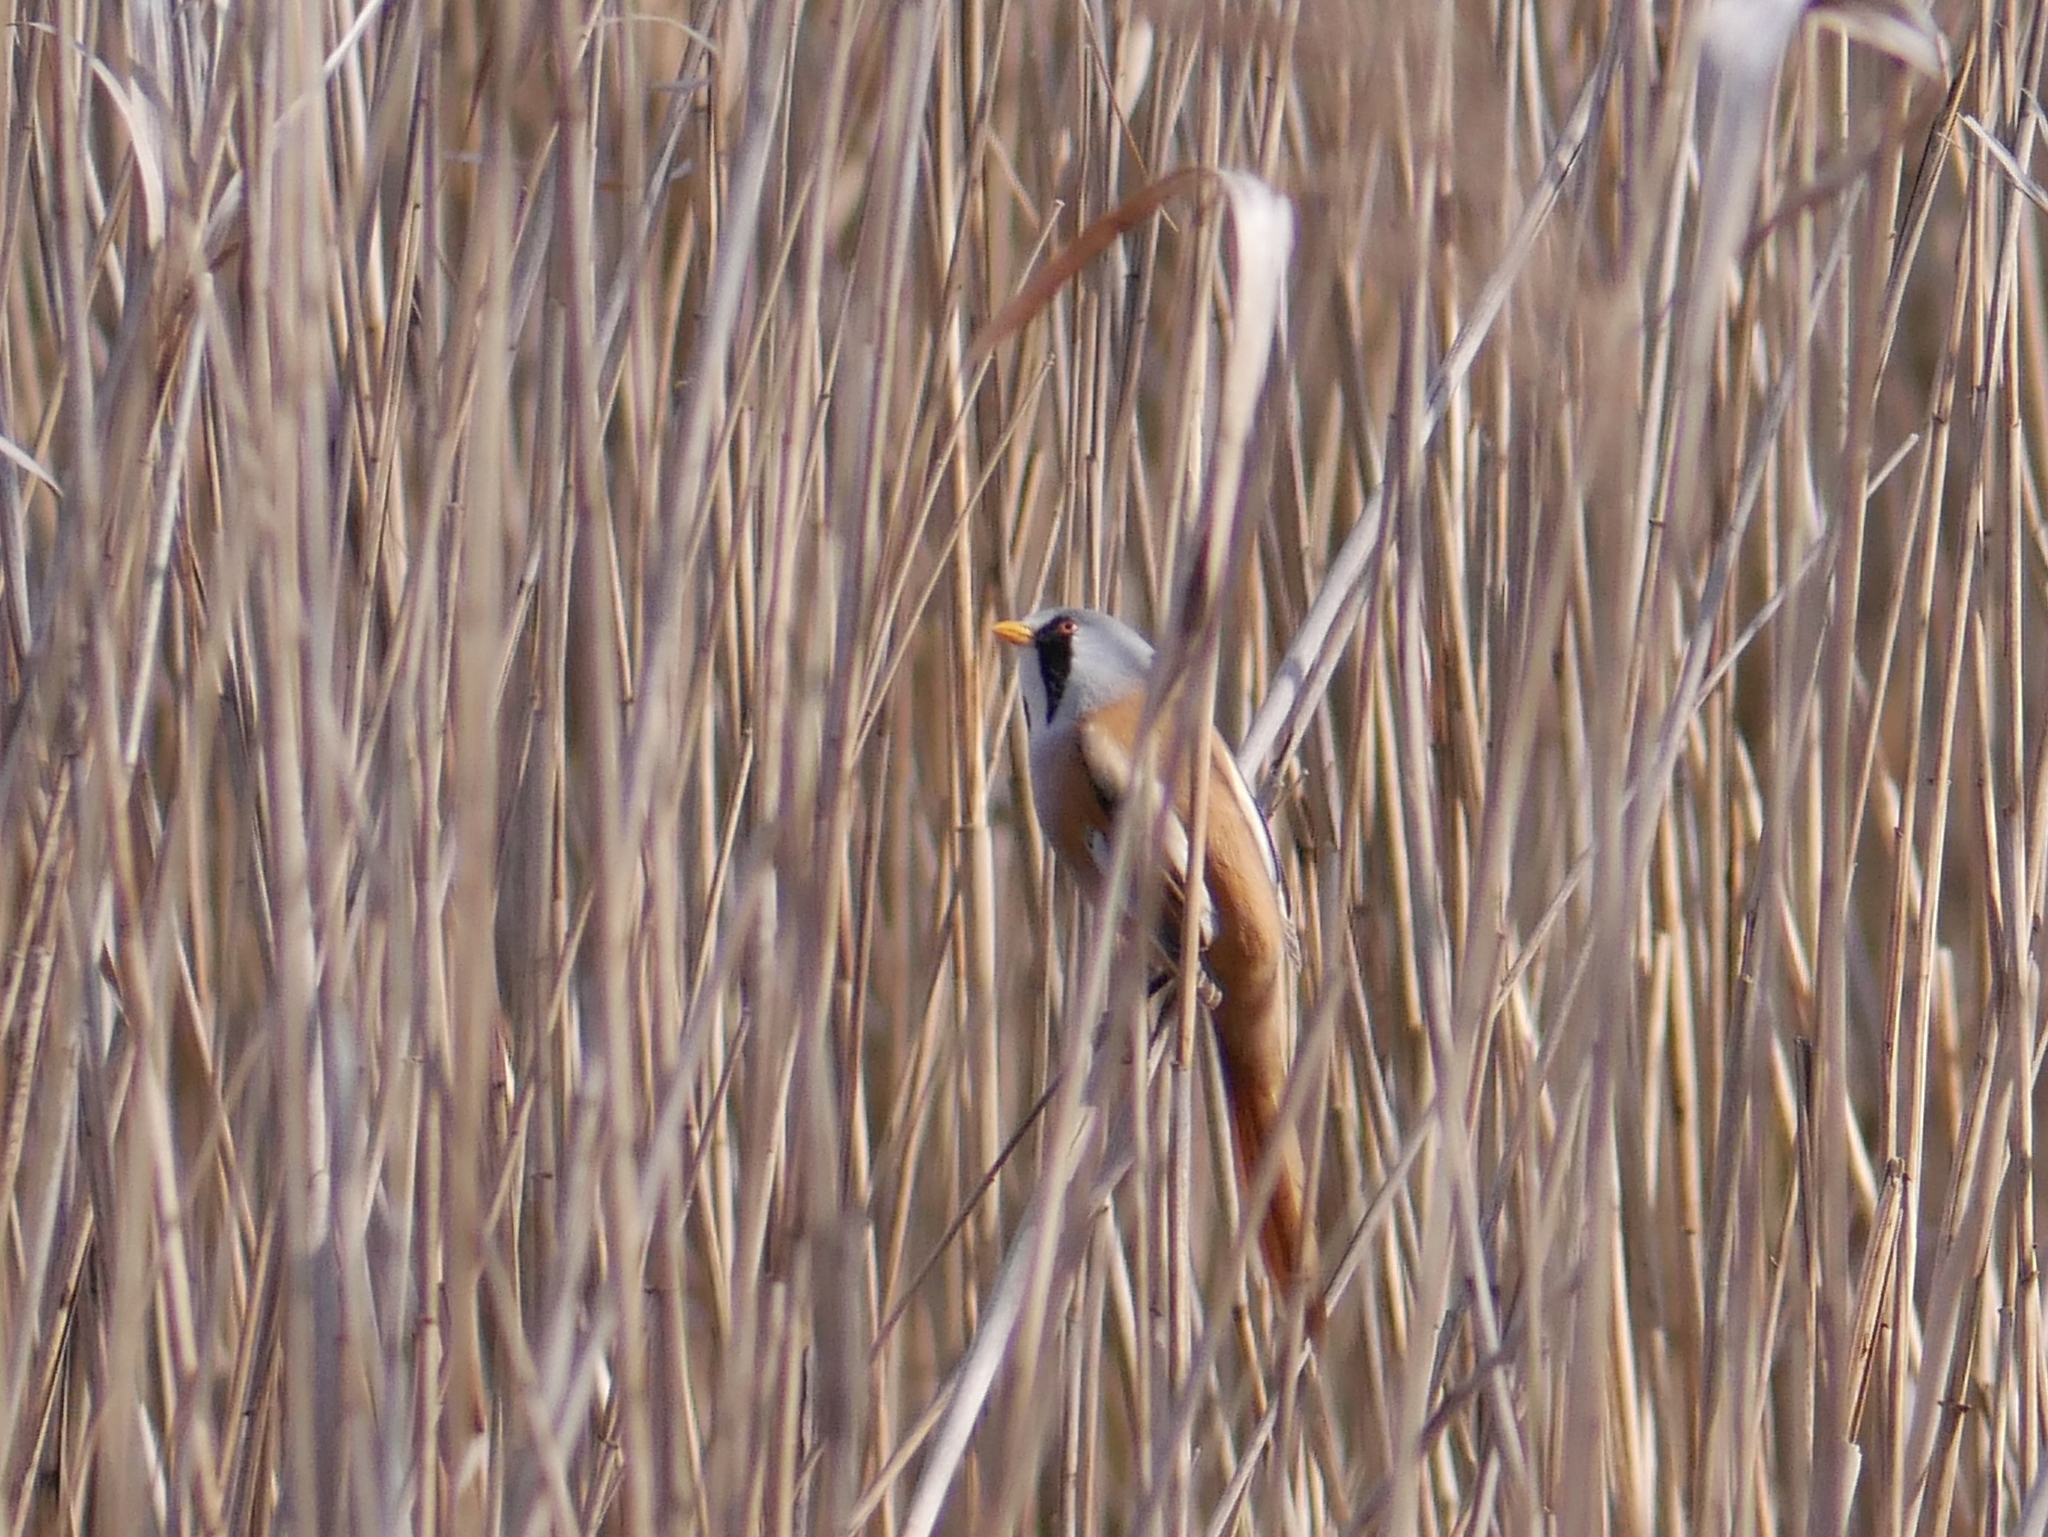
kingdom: Animalia
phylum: Chordata
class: Aves
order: Passeriformes
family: Panuridae
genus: Panurus
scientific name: Panurus biarmicus
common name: Bearded reedling
